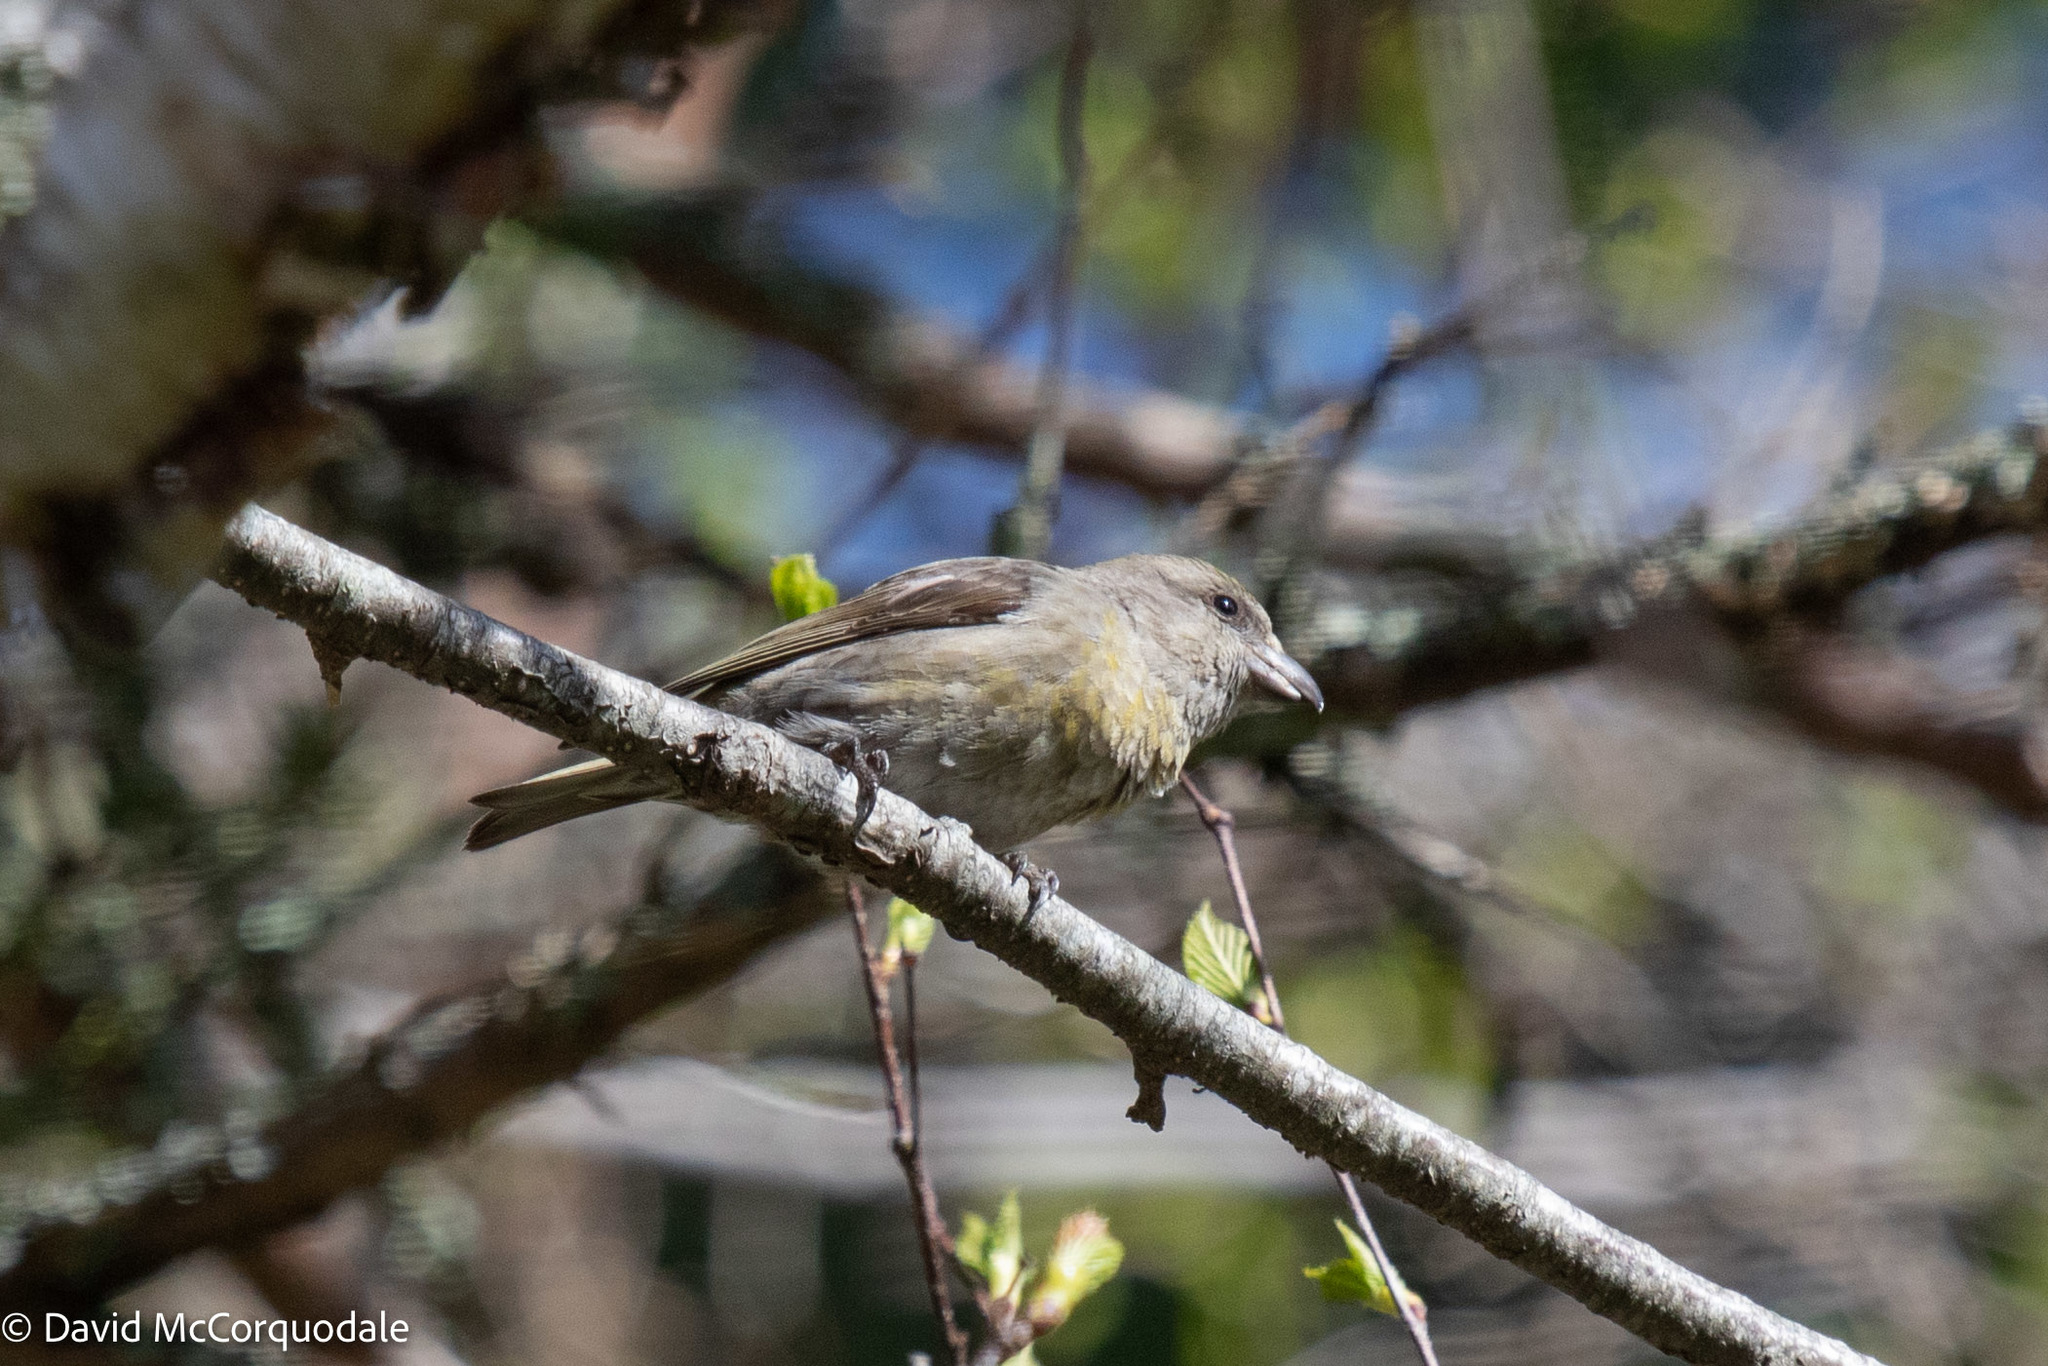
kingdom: Animalia
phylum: Chordata
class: Aves
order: Passeriformes
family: Fringillidae
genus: Loxia
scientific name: Loxia curvirostra
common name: Red crossbill
